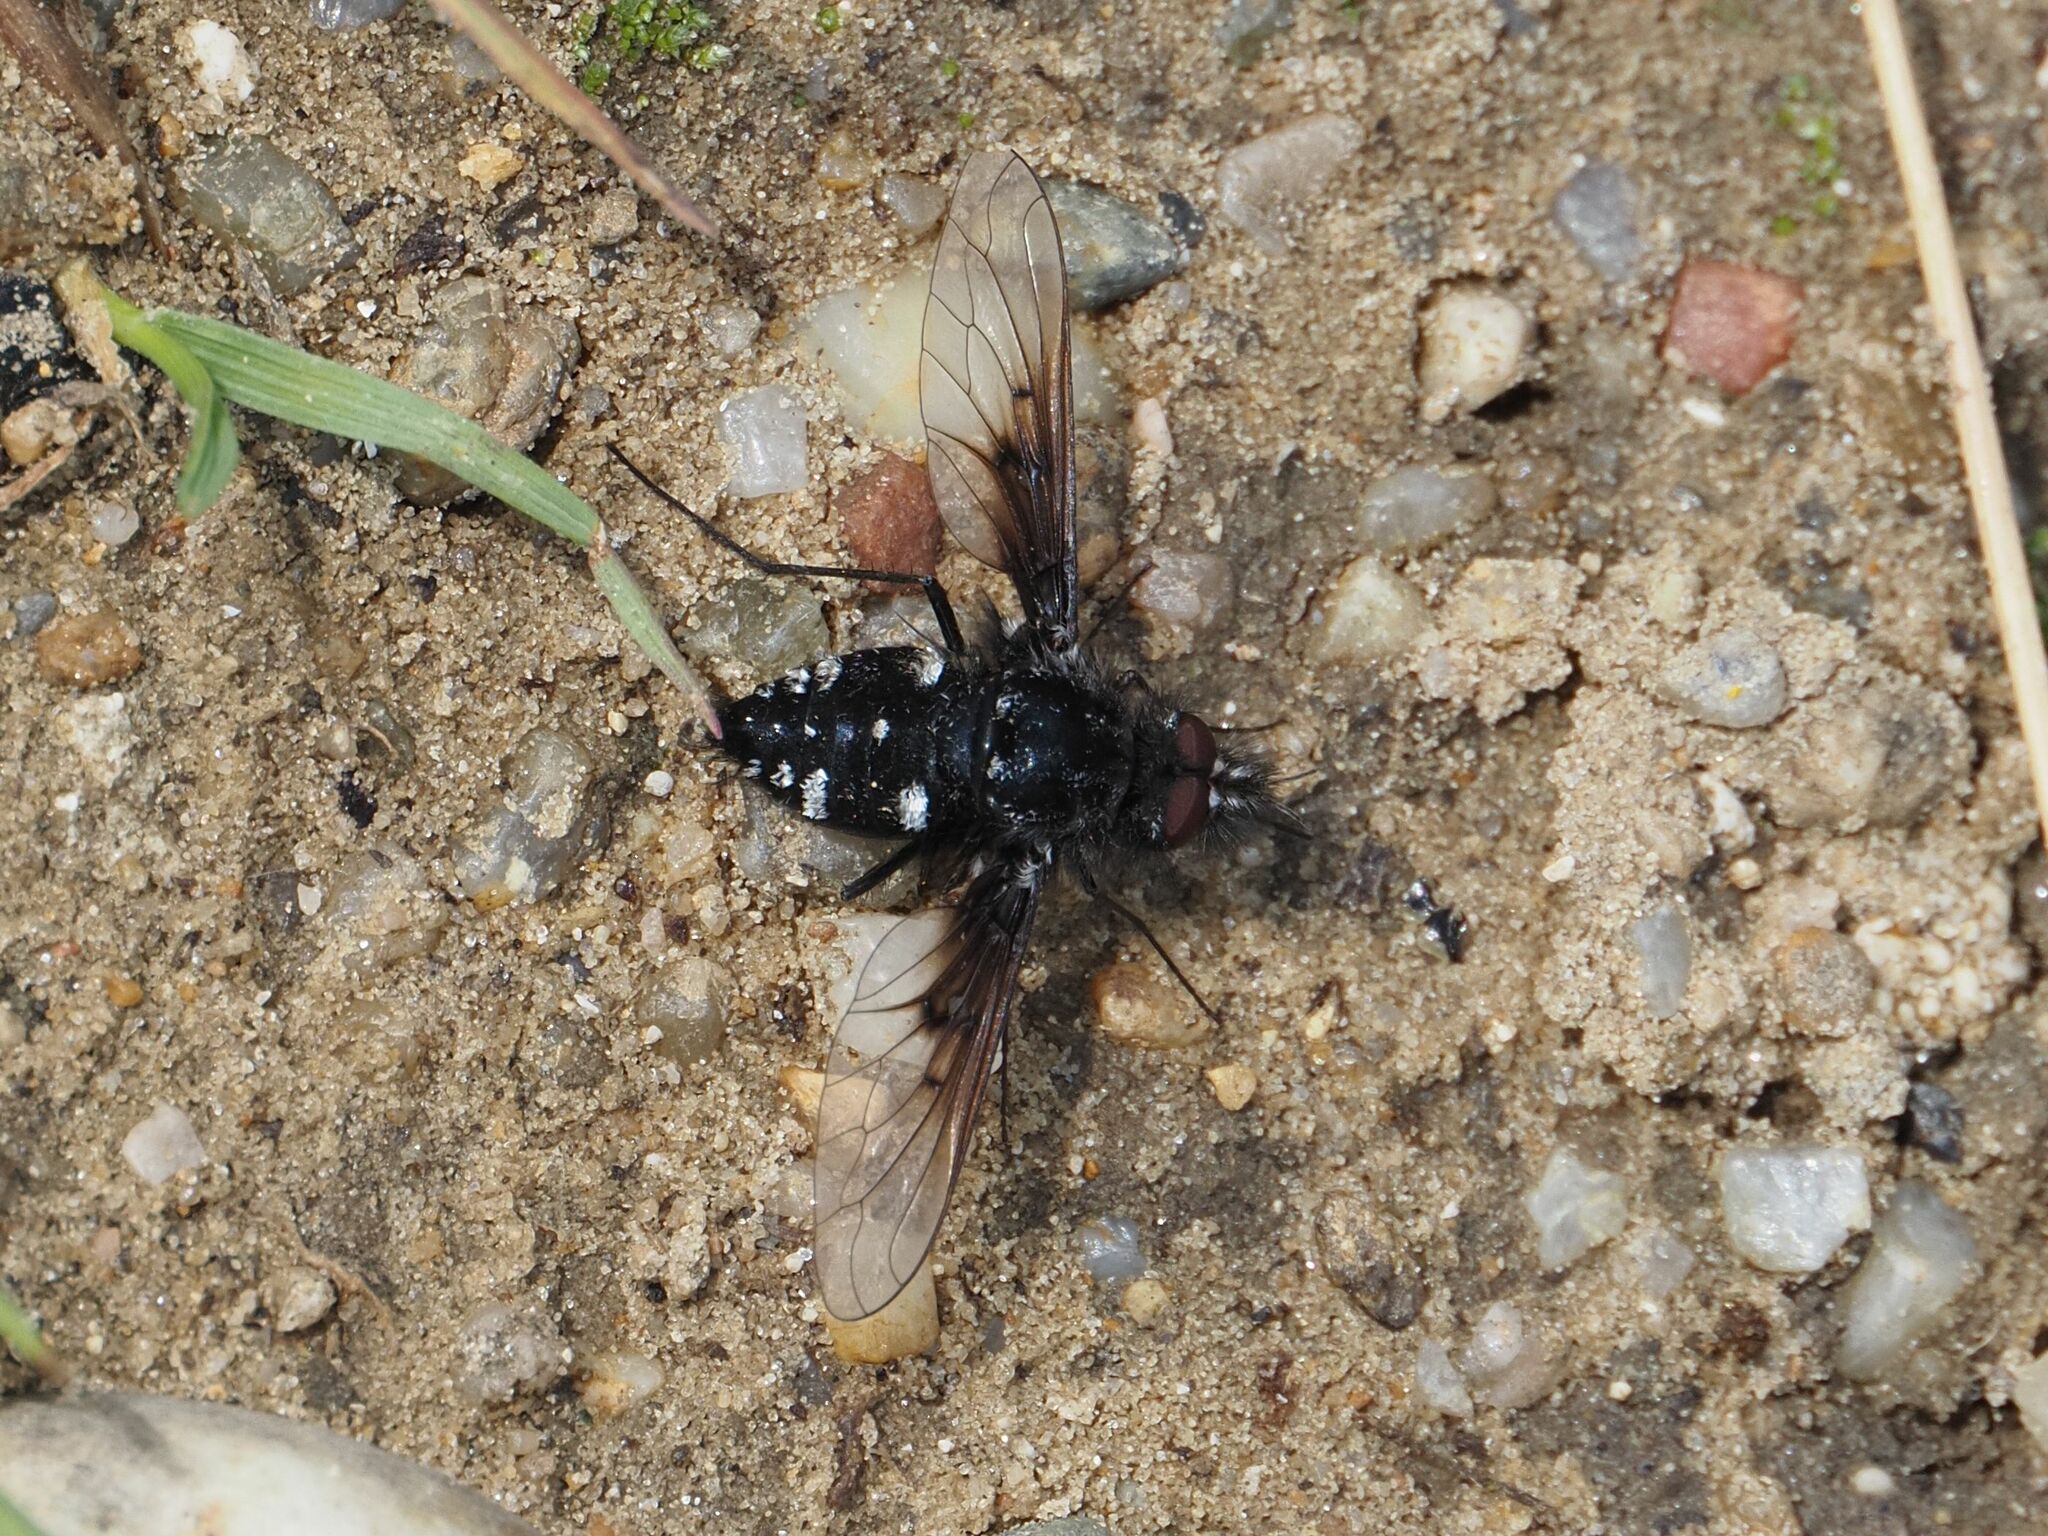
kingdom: Animalia
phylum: Arthropoda
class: Insecta
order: Diptera
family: Bombyliidae
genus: Bombylella
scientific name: Bombylella atra
